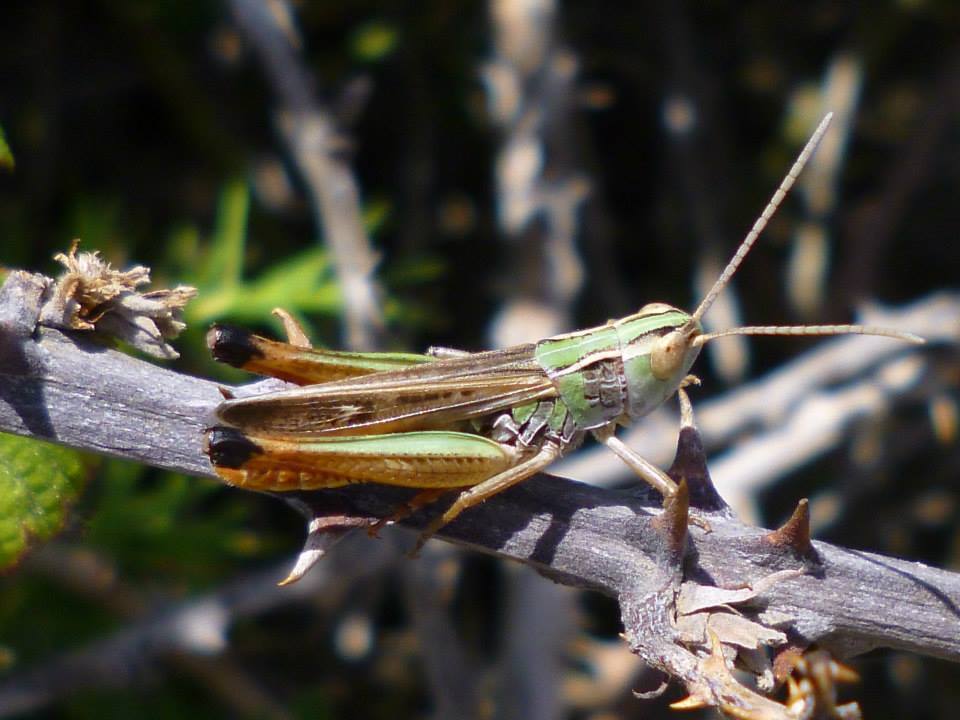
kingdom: Animalia
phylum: Arthropoda
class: Insecta
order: Orthoptera
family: Acrididae
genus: Stenobothrus
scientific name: Stenobothrus fischeri
